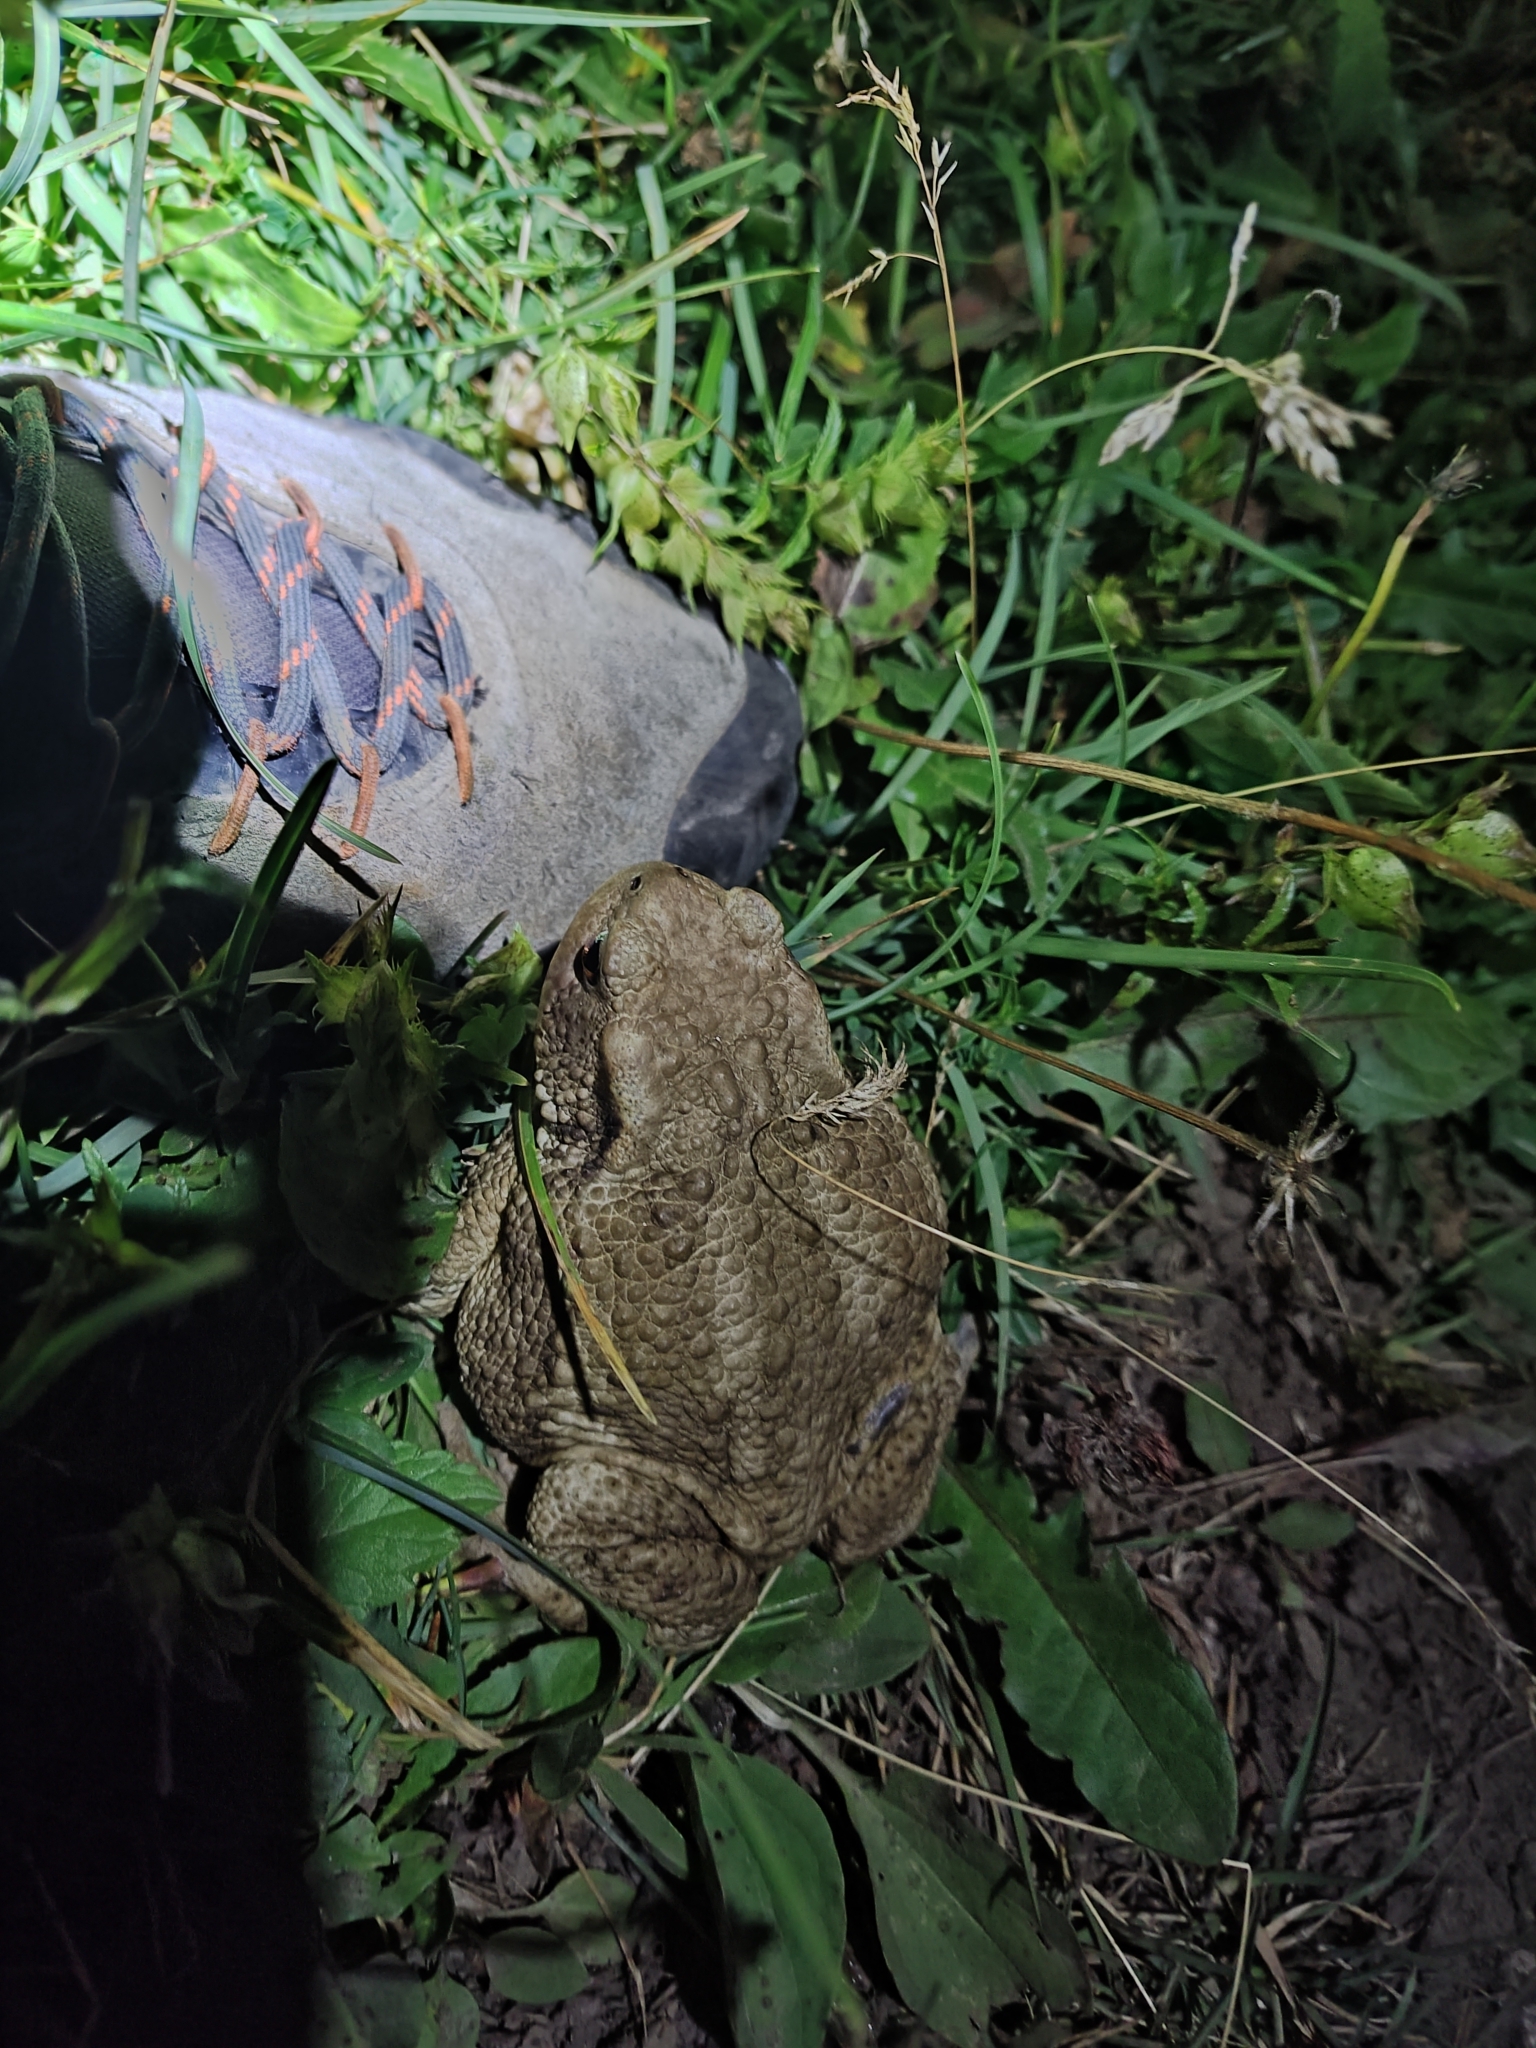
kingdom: Animalia
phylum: Chordata
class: Amphibia
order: Anura
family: Bufonidae
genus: Bufo
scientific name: Bufo bufo
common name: Common toad
